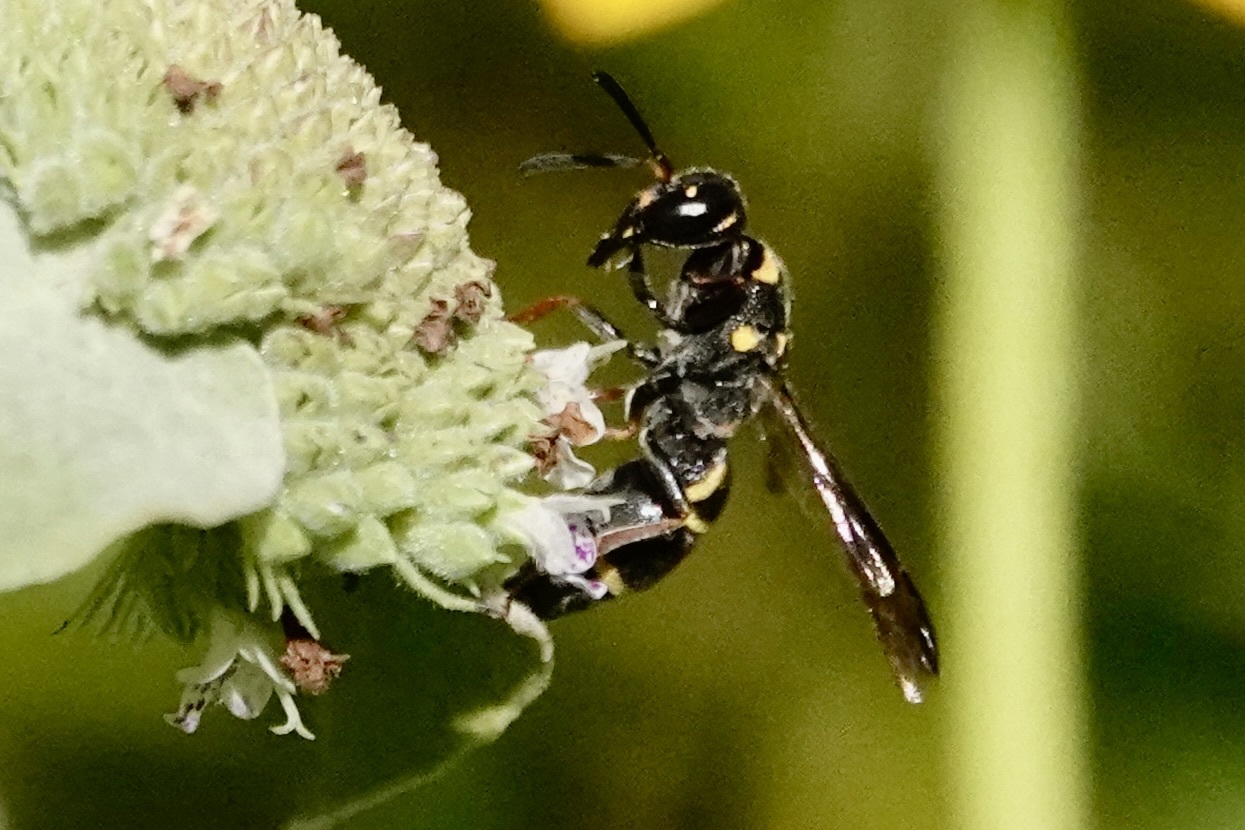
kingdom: Animalia
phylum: Arthropoda
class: Insecta
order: Hymenoptera
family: Eumenidae
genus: Parancistrocerus
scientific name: Parancistrocerus fulvipes
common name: Potter wasp
